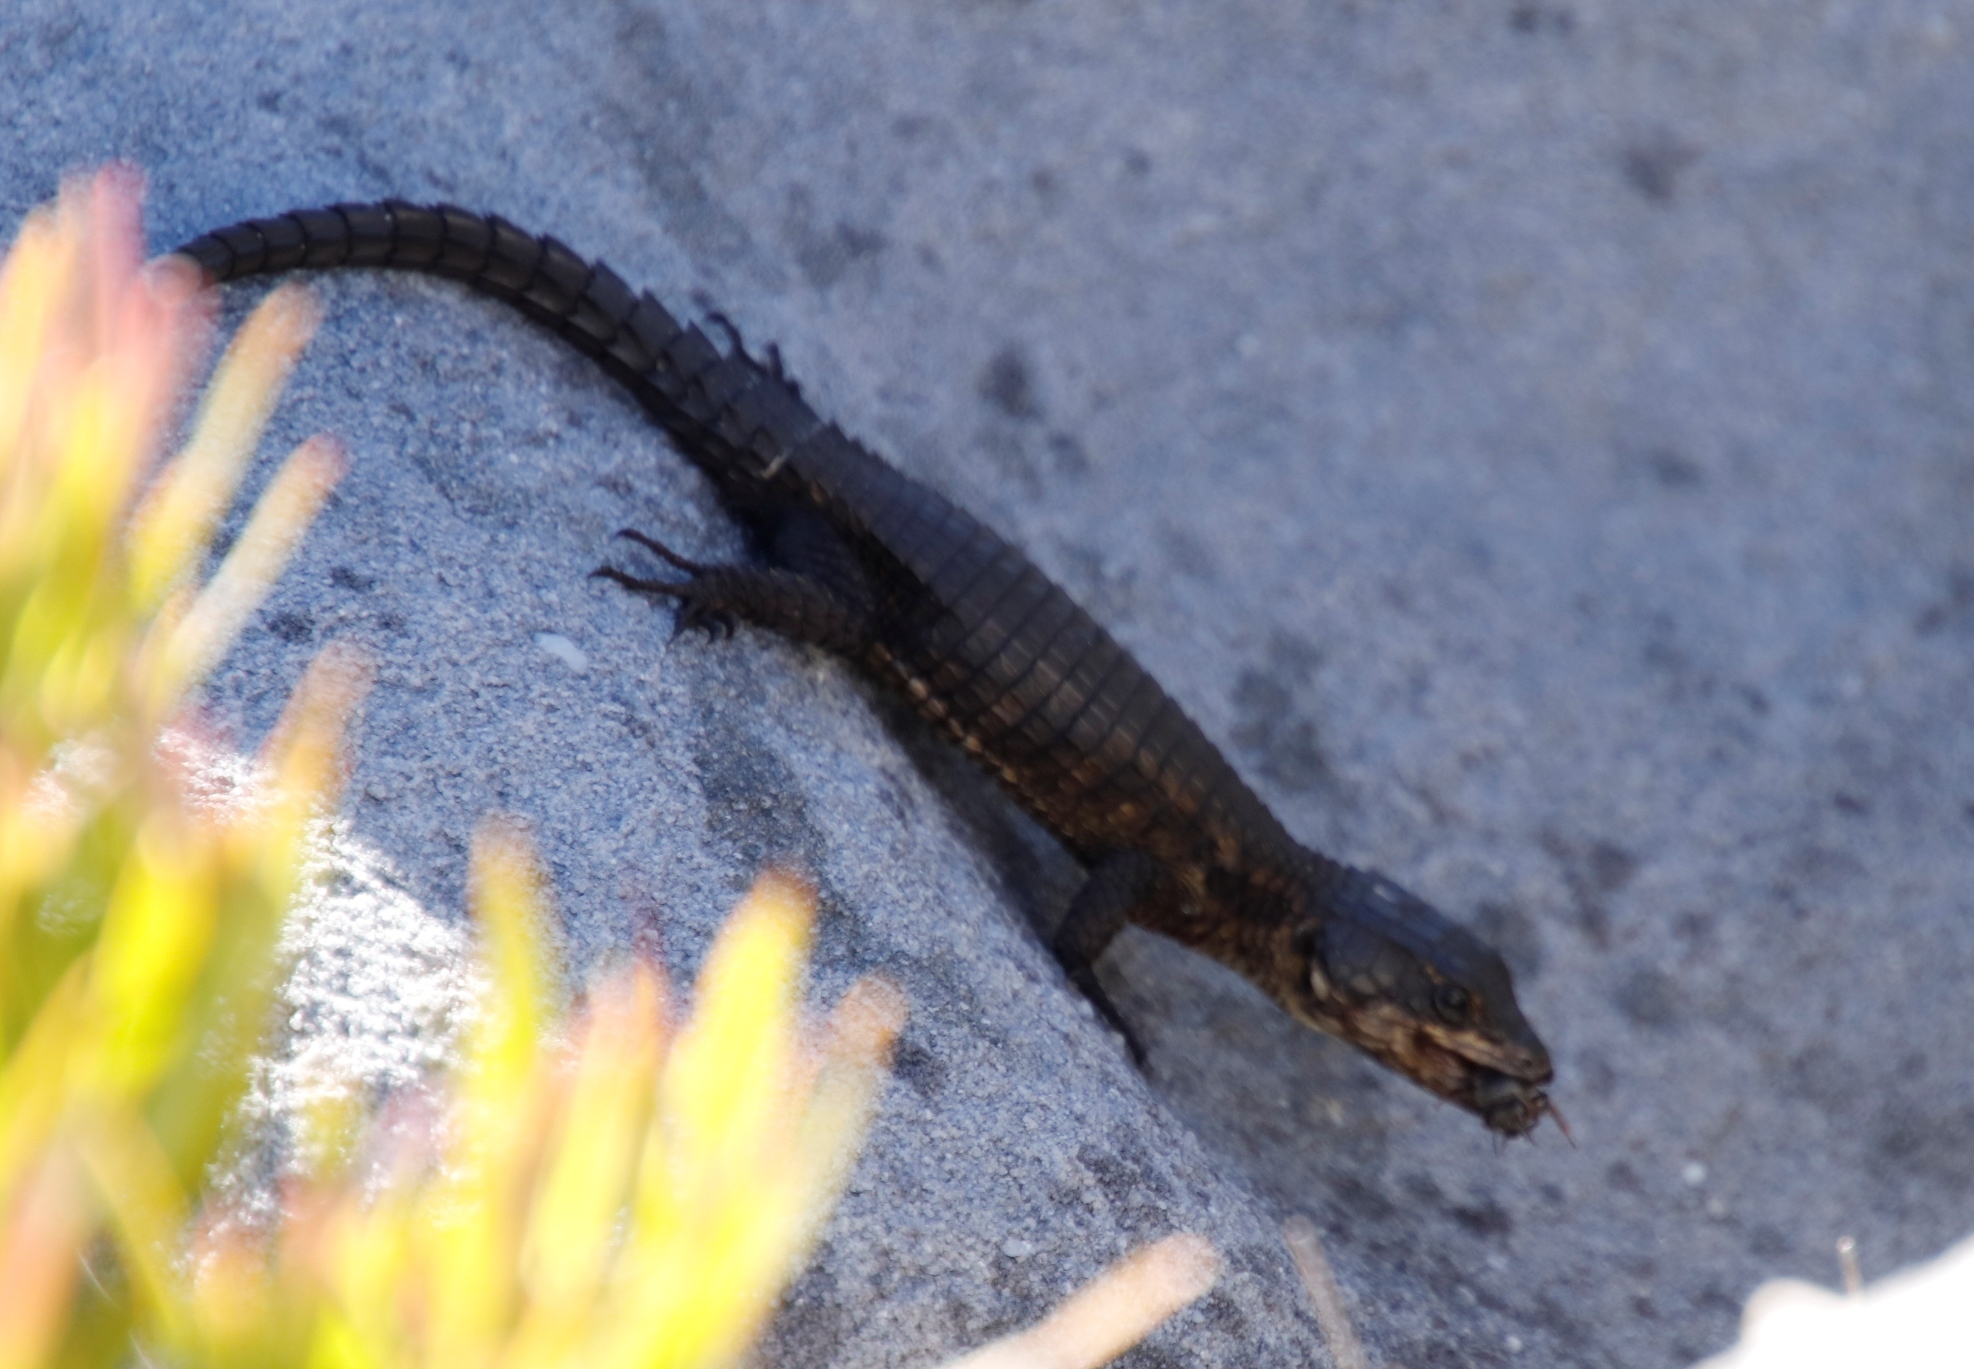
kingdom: Animalia
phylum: Chordata
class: Squamata
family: Cordylidae
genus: Cordylus
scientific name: Cordylus niger
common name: Black girdled lizard
